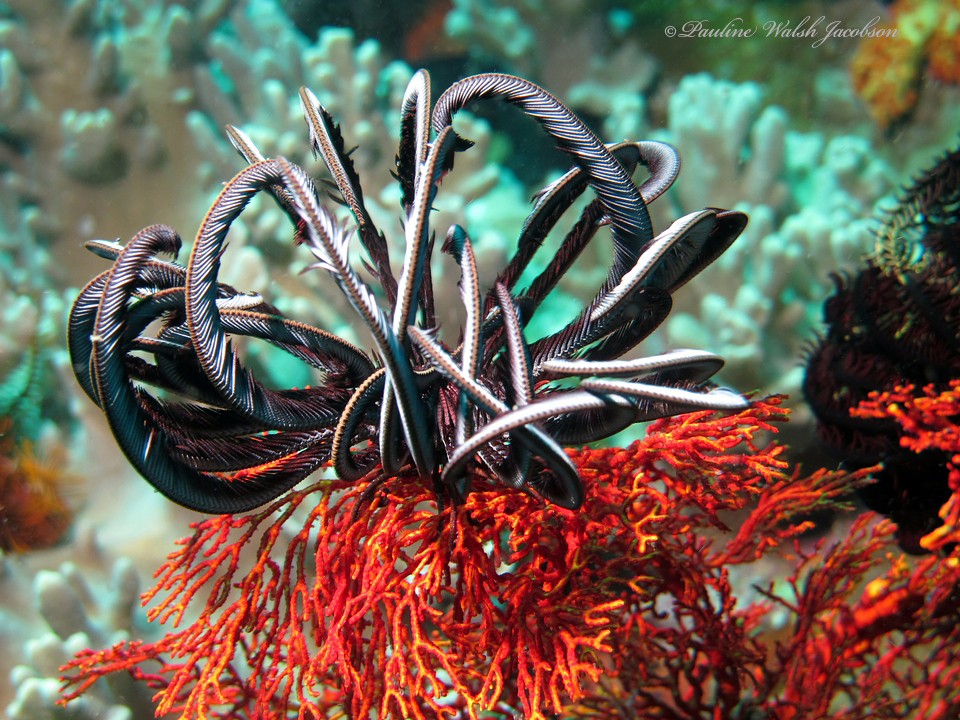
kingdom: Animalia
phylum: Echinodermata
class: Crinoidea
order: Comatulida
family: Colobometridae
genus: Cenometra
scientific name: Cenometra bella
